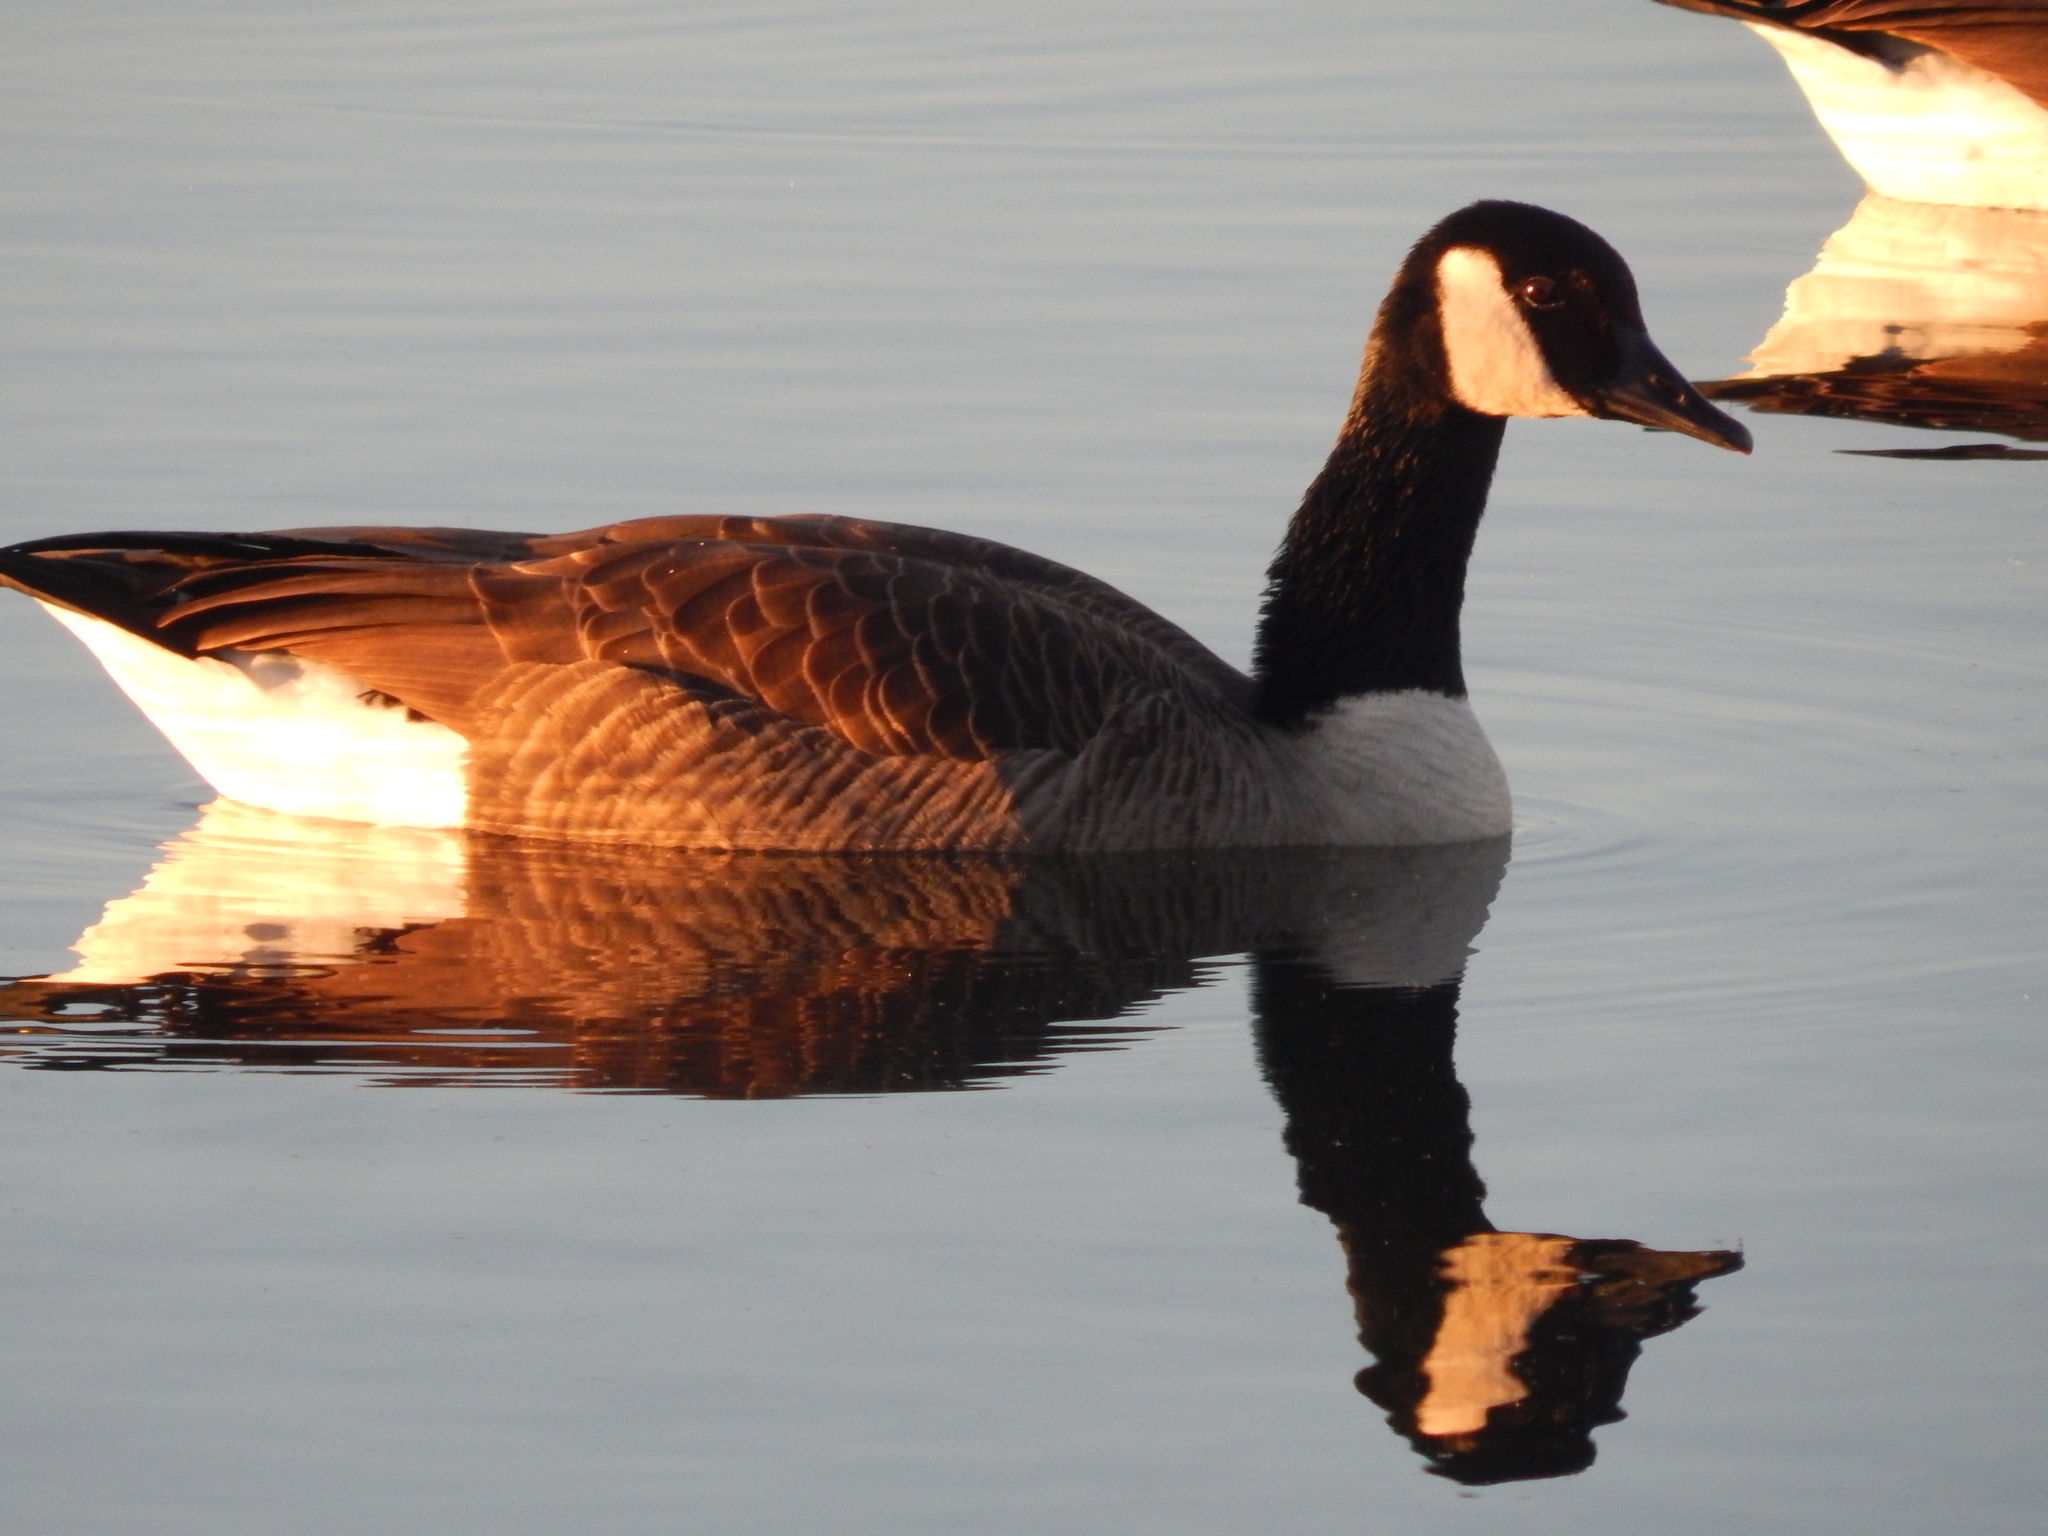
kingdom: Animalia
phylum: Chordata
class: Aves
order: Anseriformes
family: Anatidae
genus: Branta
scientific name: Branta canadensis
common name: Canada goose
